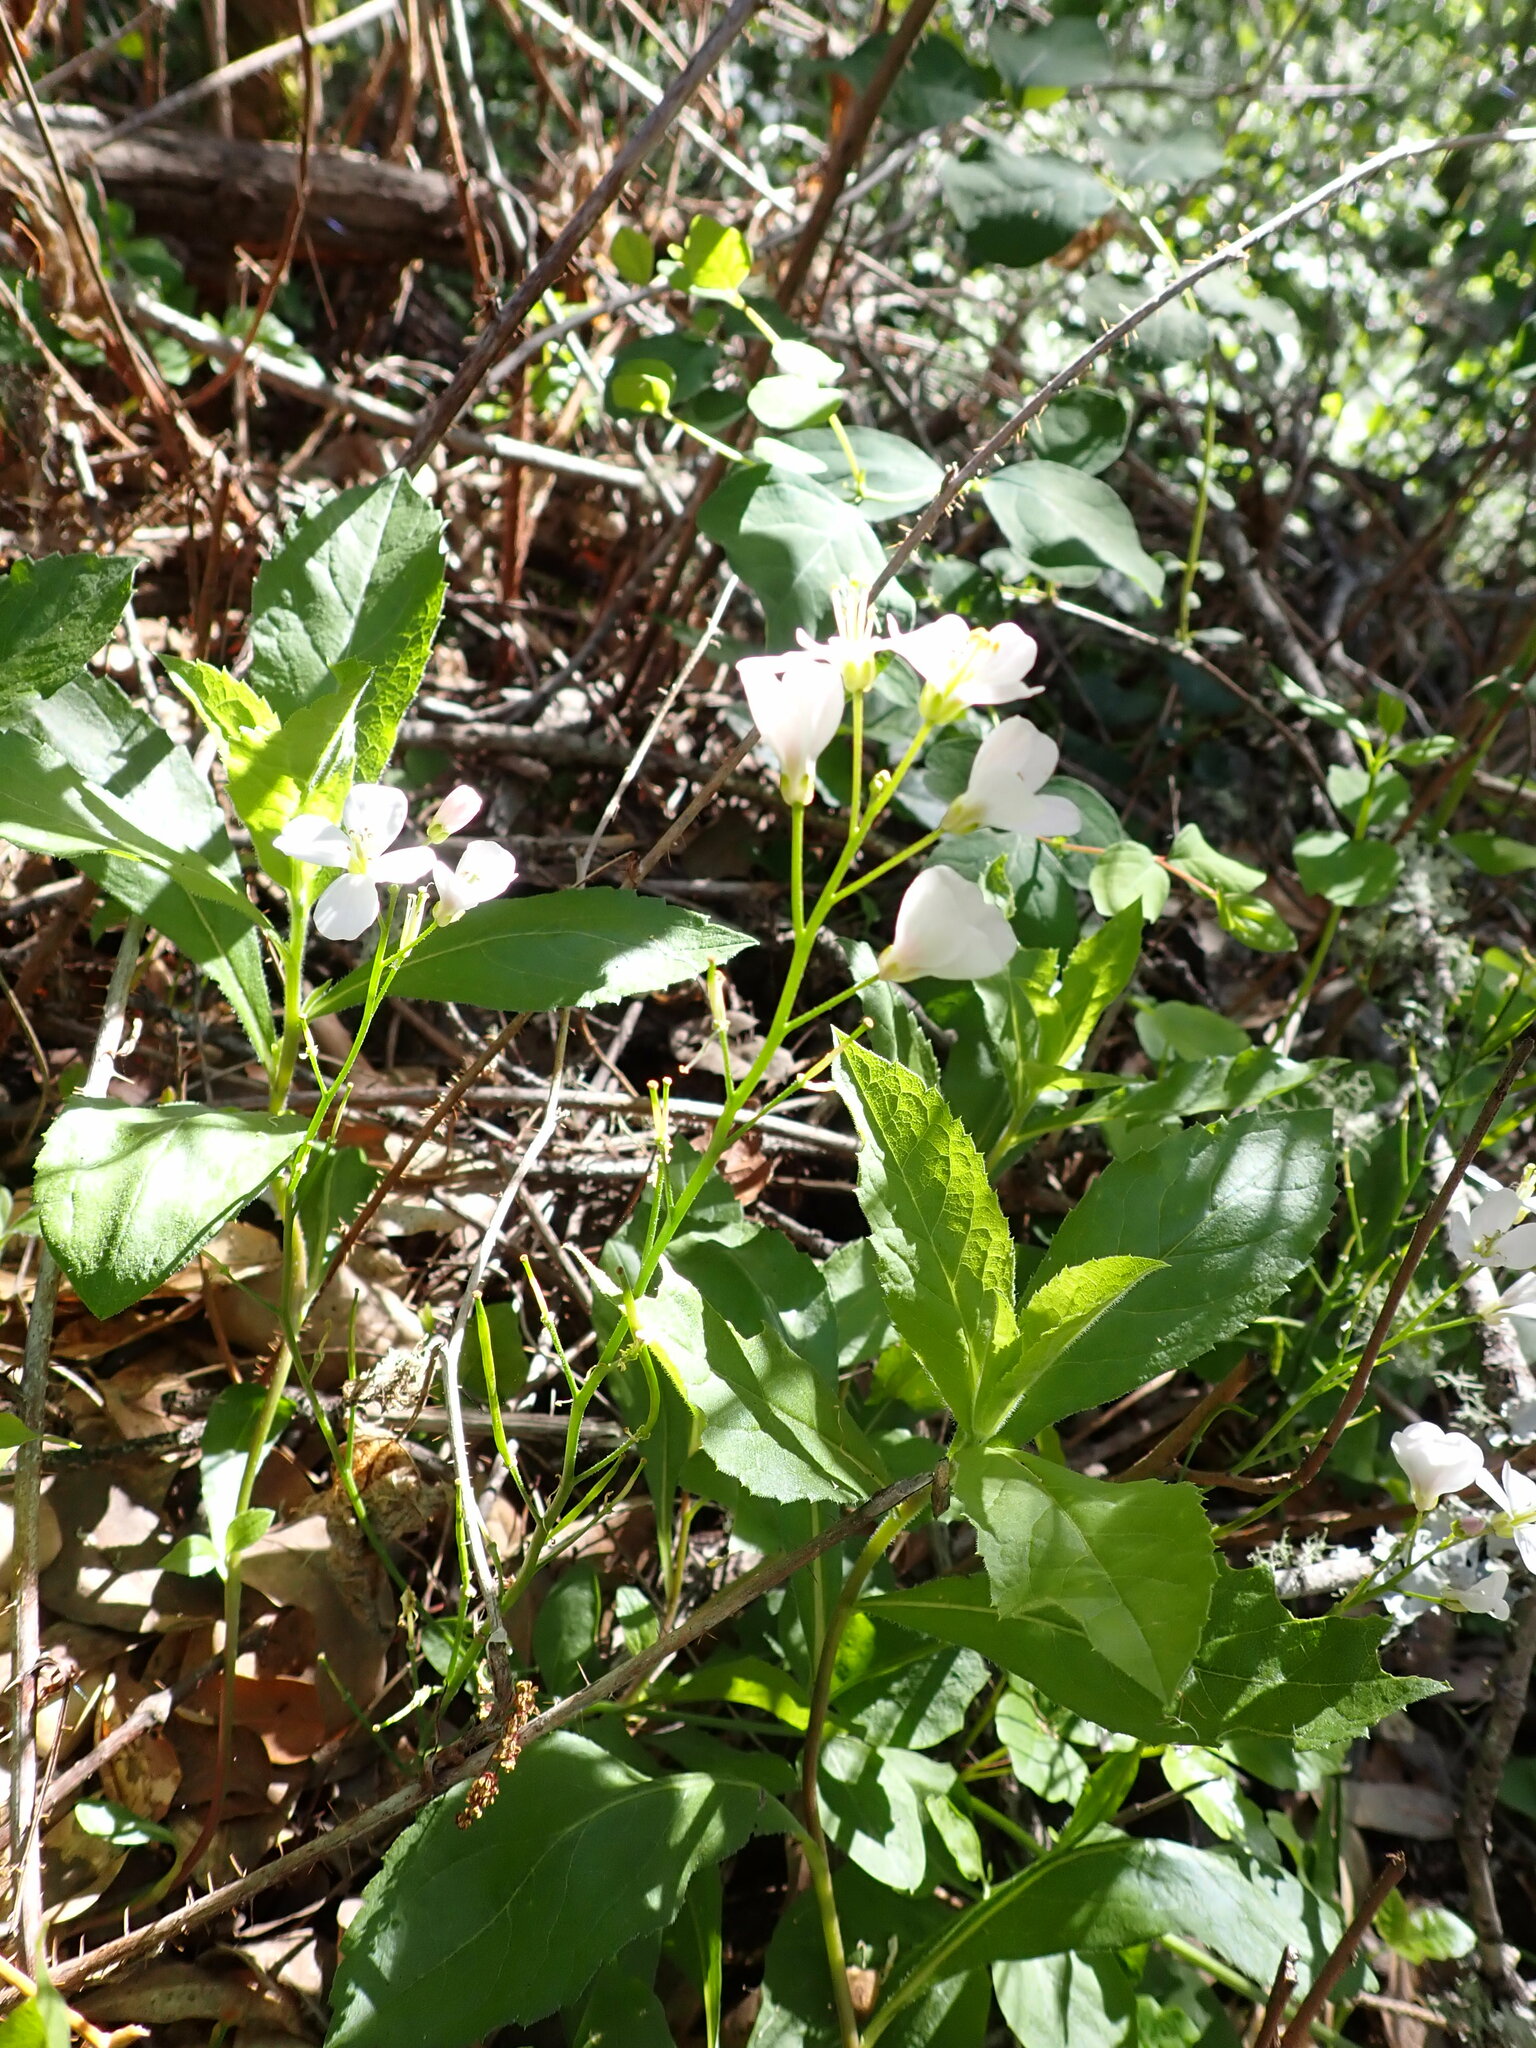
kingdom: Plantae
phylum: Tracheophyta
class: Magnoliopsida
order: Brassicales
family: Brassicaceae
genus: Cardamine
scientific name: Cardamine californica
